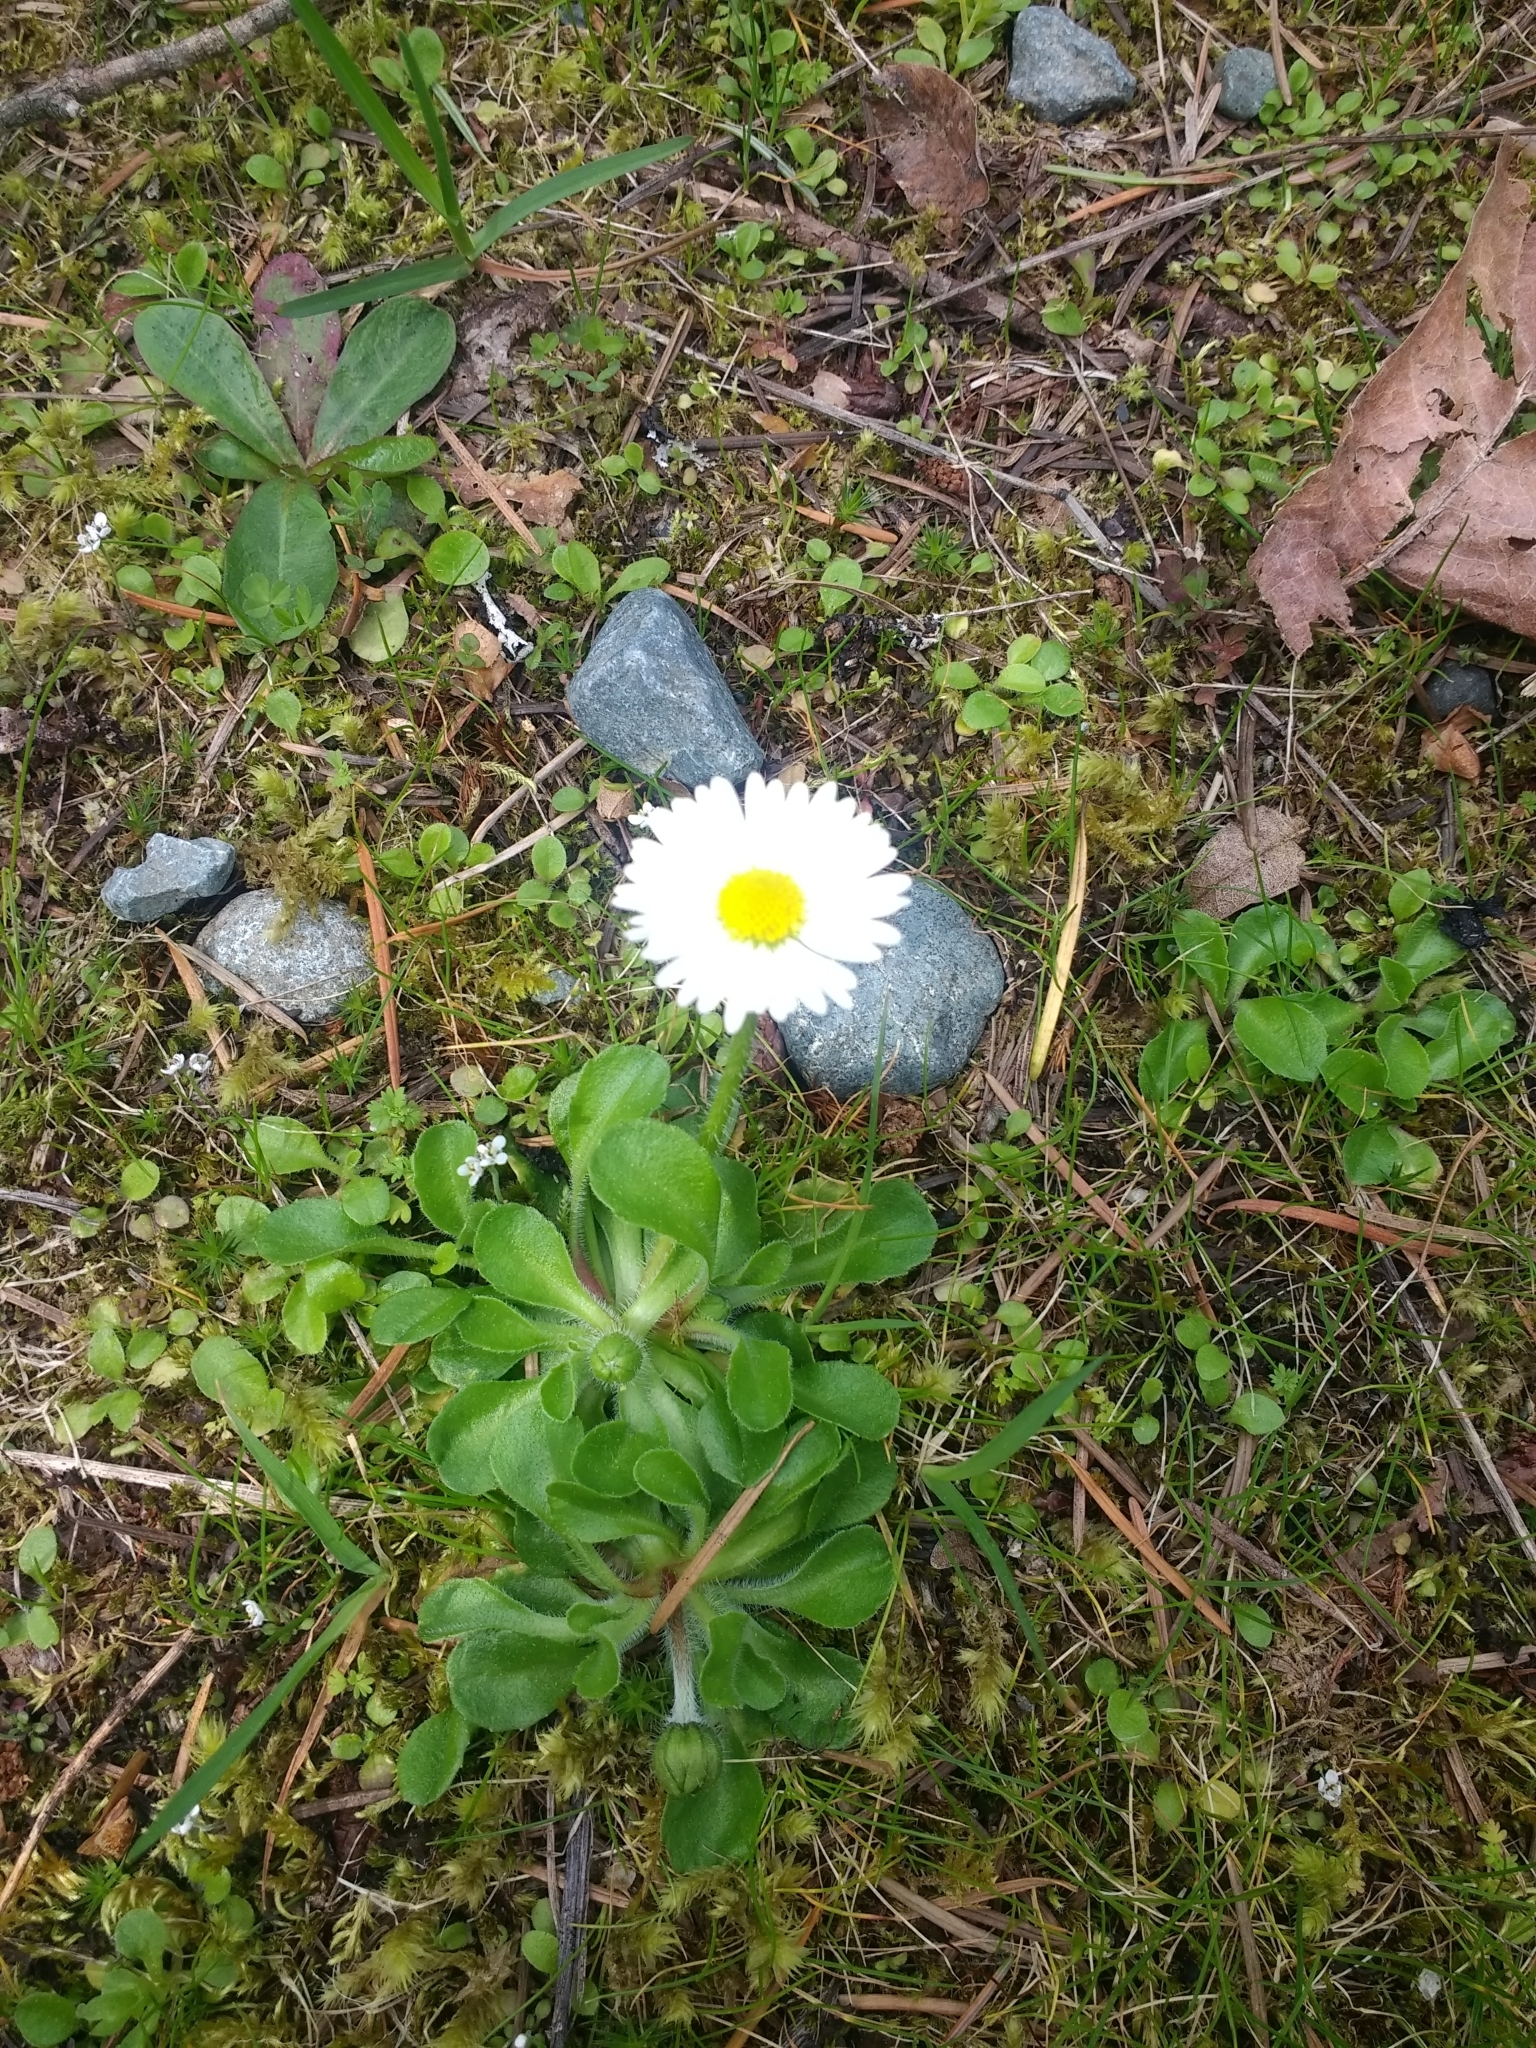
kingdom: Plantae
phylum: Tracheophyta
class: Magnoliopsida
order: Asterales
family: Asteraceae
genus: Bellis
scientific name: Bellis perennis
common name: Lawndaisy
